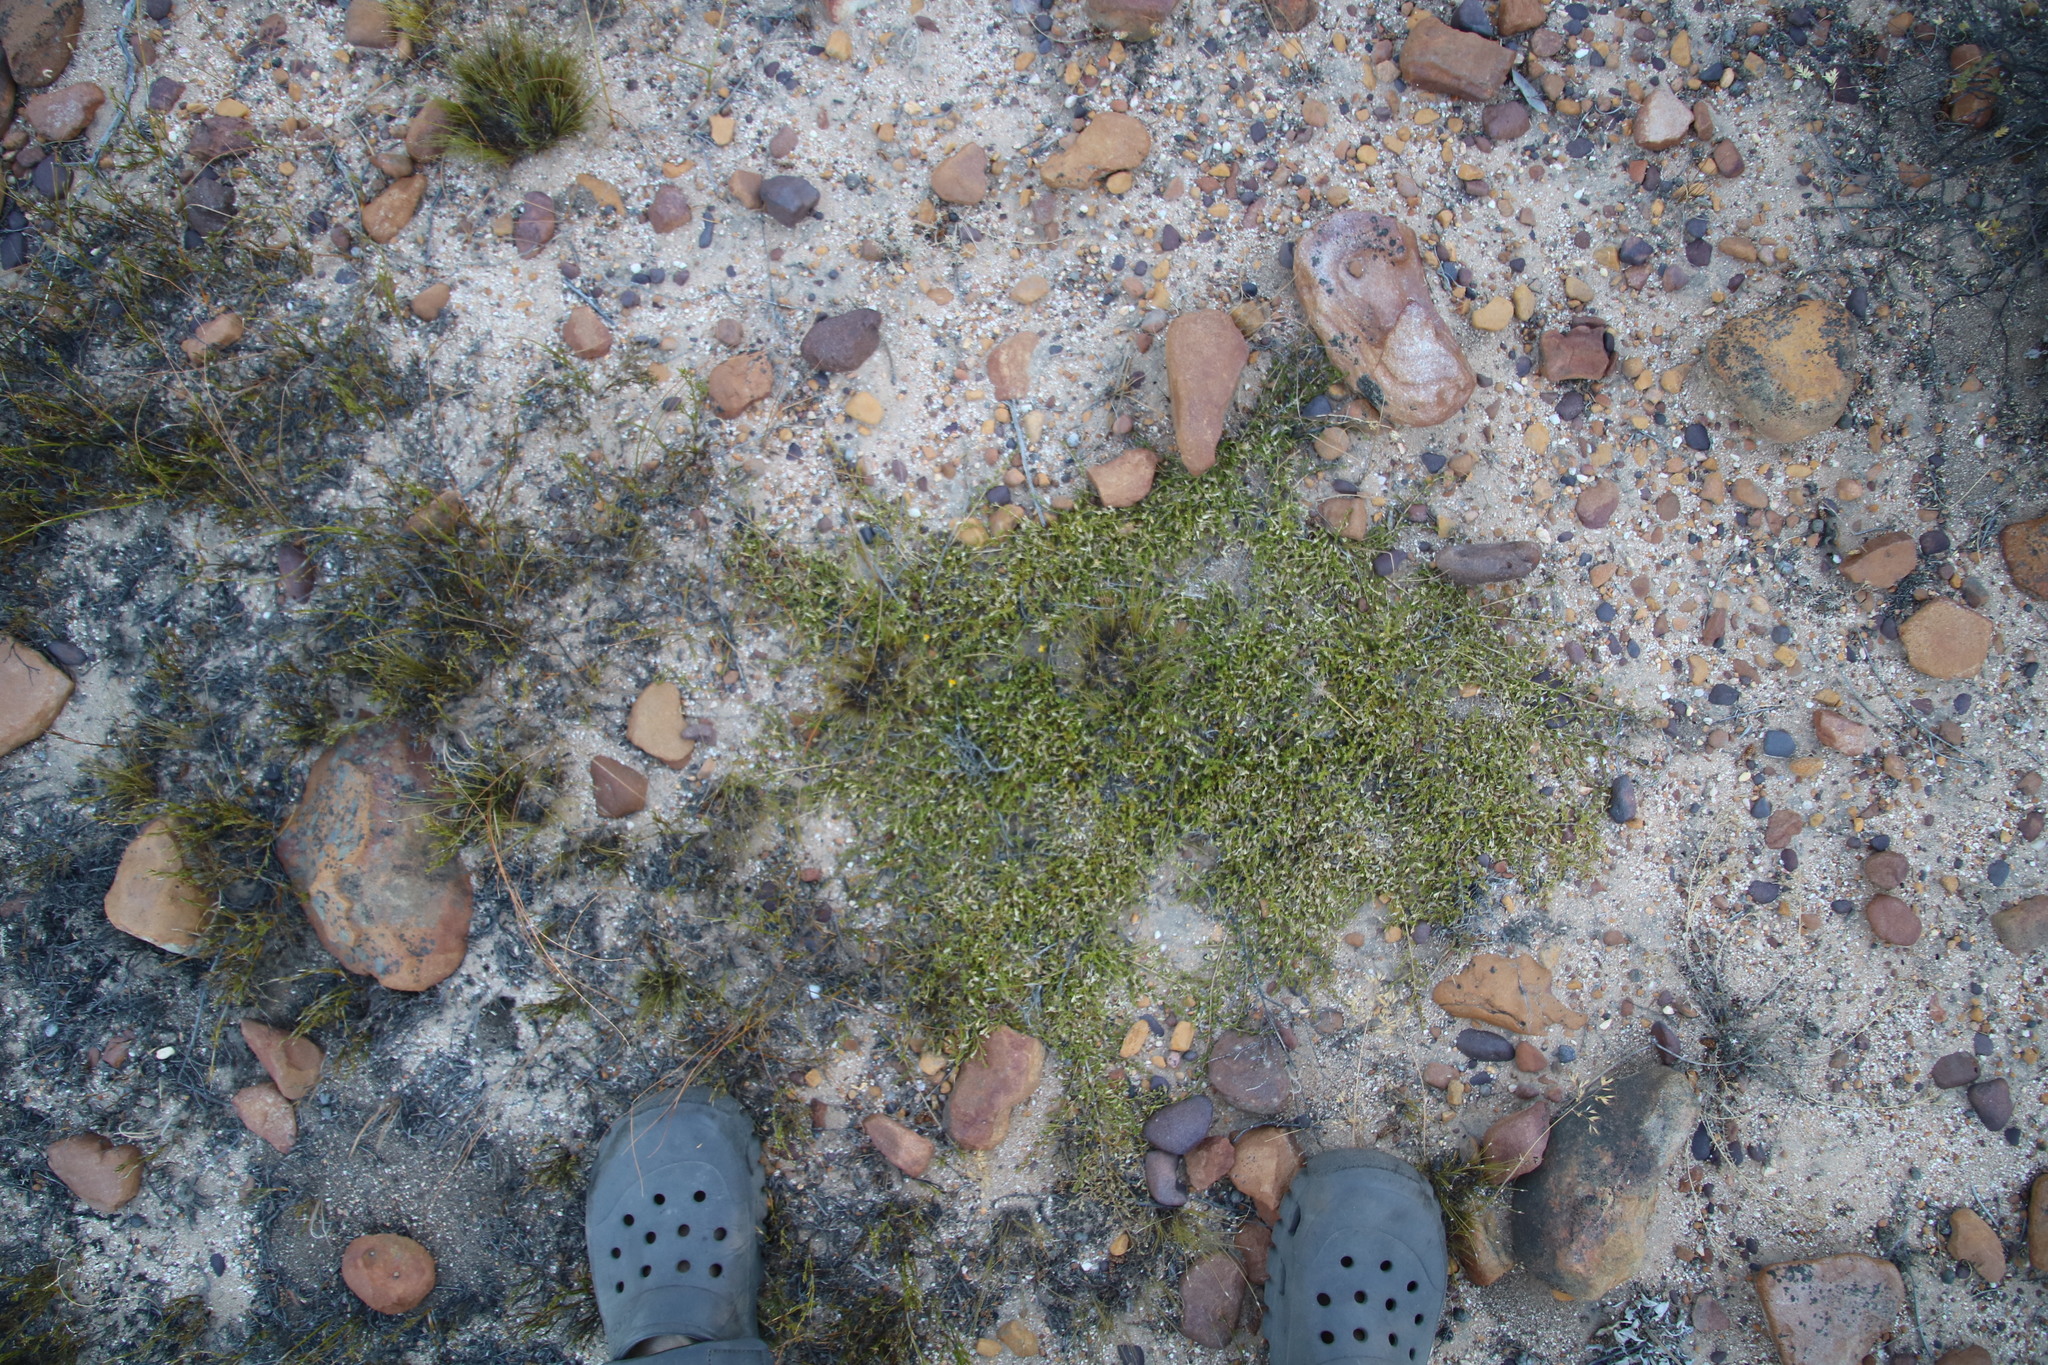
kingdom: Plantae
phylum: Tracheophyta
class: Magnoliopsida
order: Fabales
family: Fabaceae
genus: Aspalathus
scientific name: Aspalathus brevicarpa
